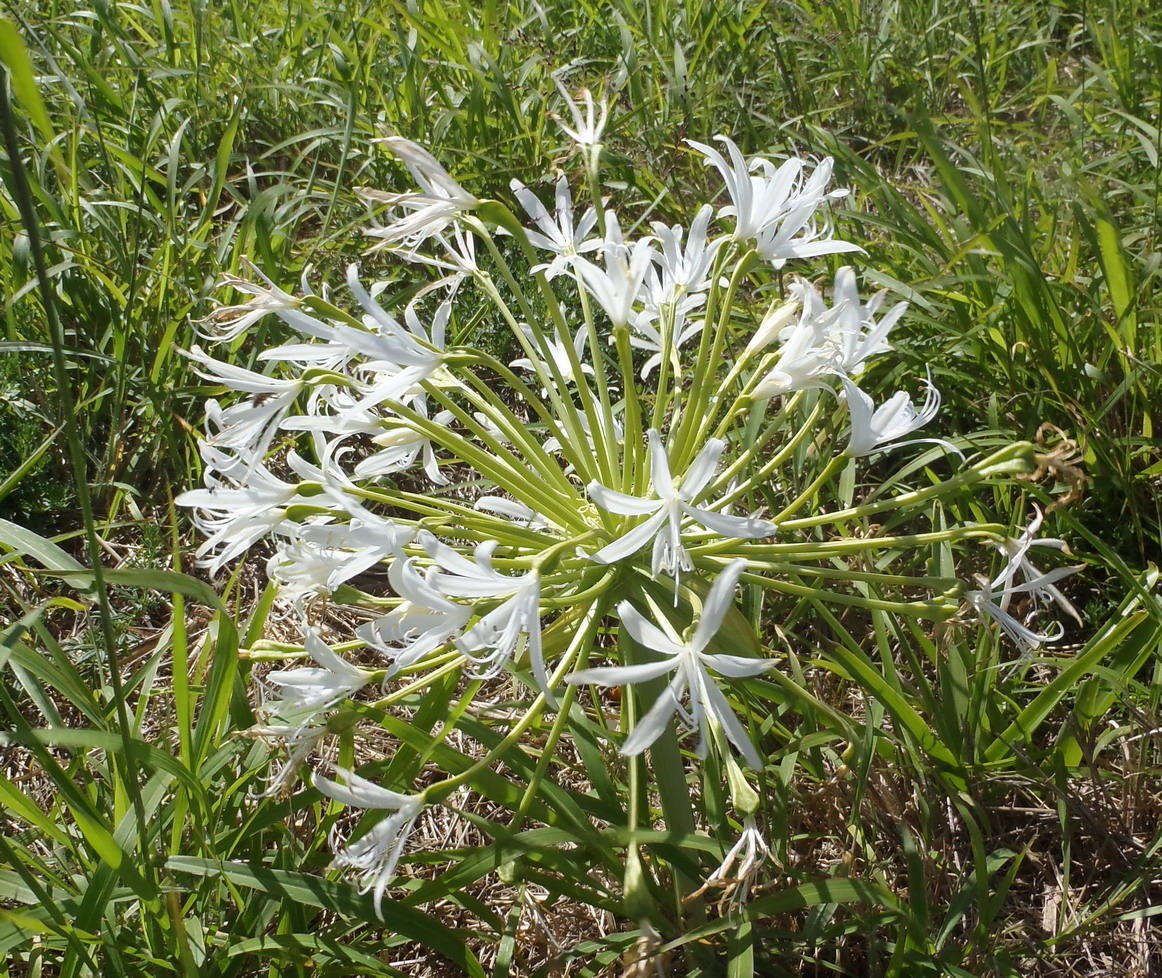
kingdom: Plantae
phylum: Tracheophyta
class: Liliopsida
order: Asparagales
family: Amaryllidaceae
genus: Brunsvigia
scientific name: Brunsvigia gregaria
